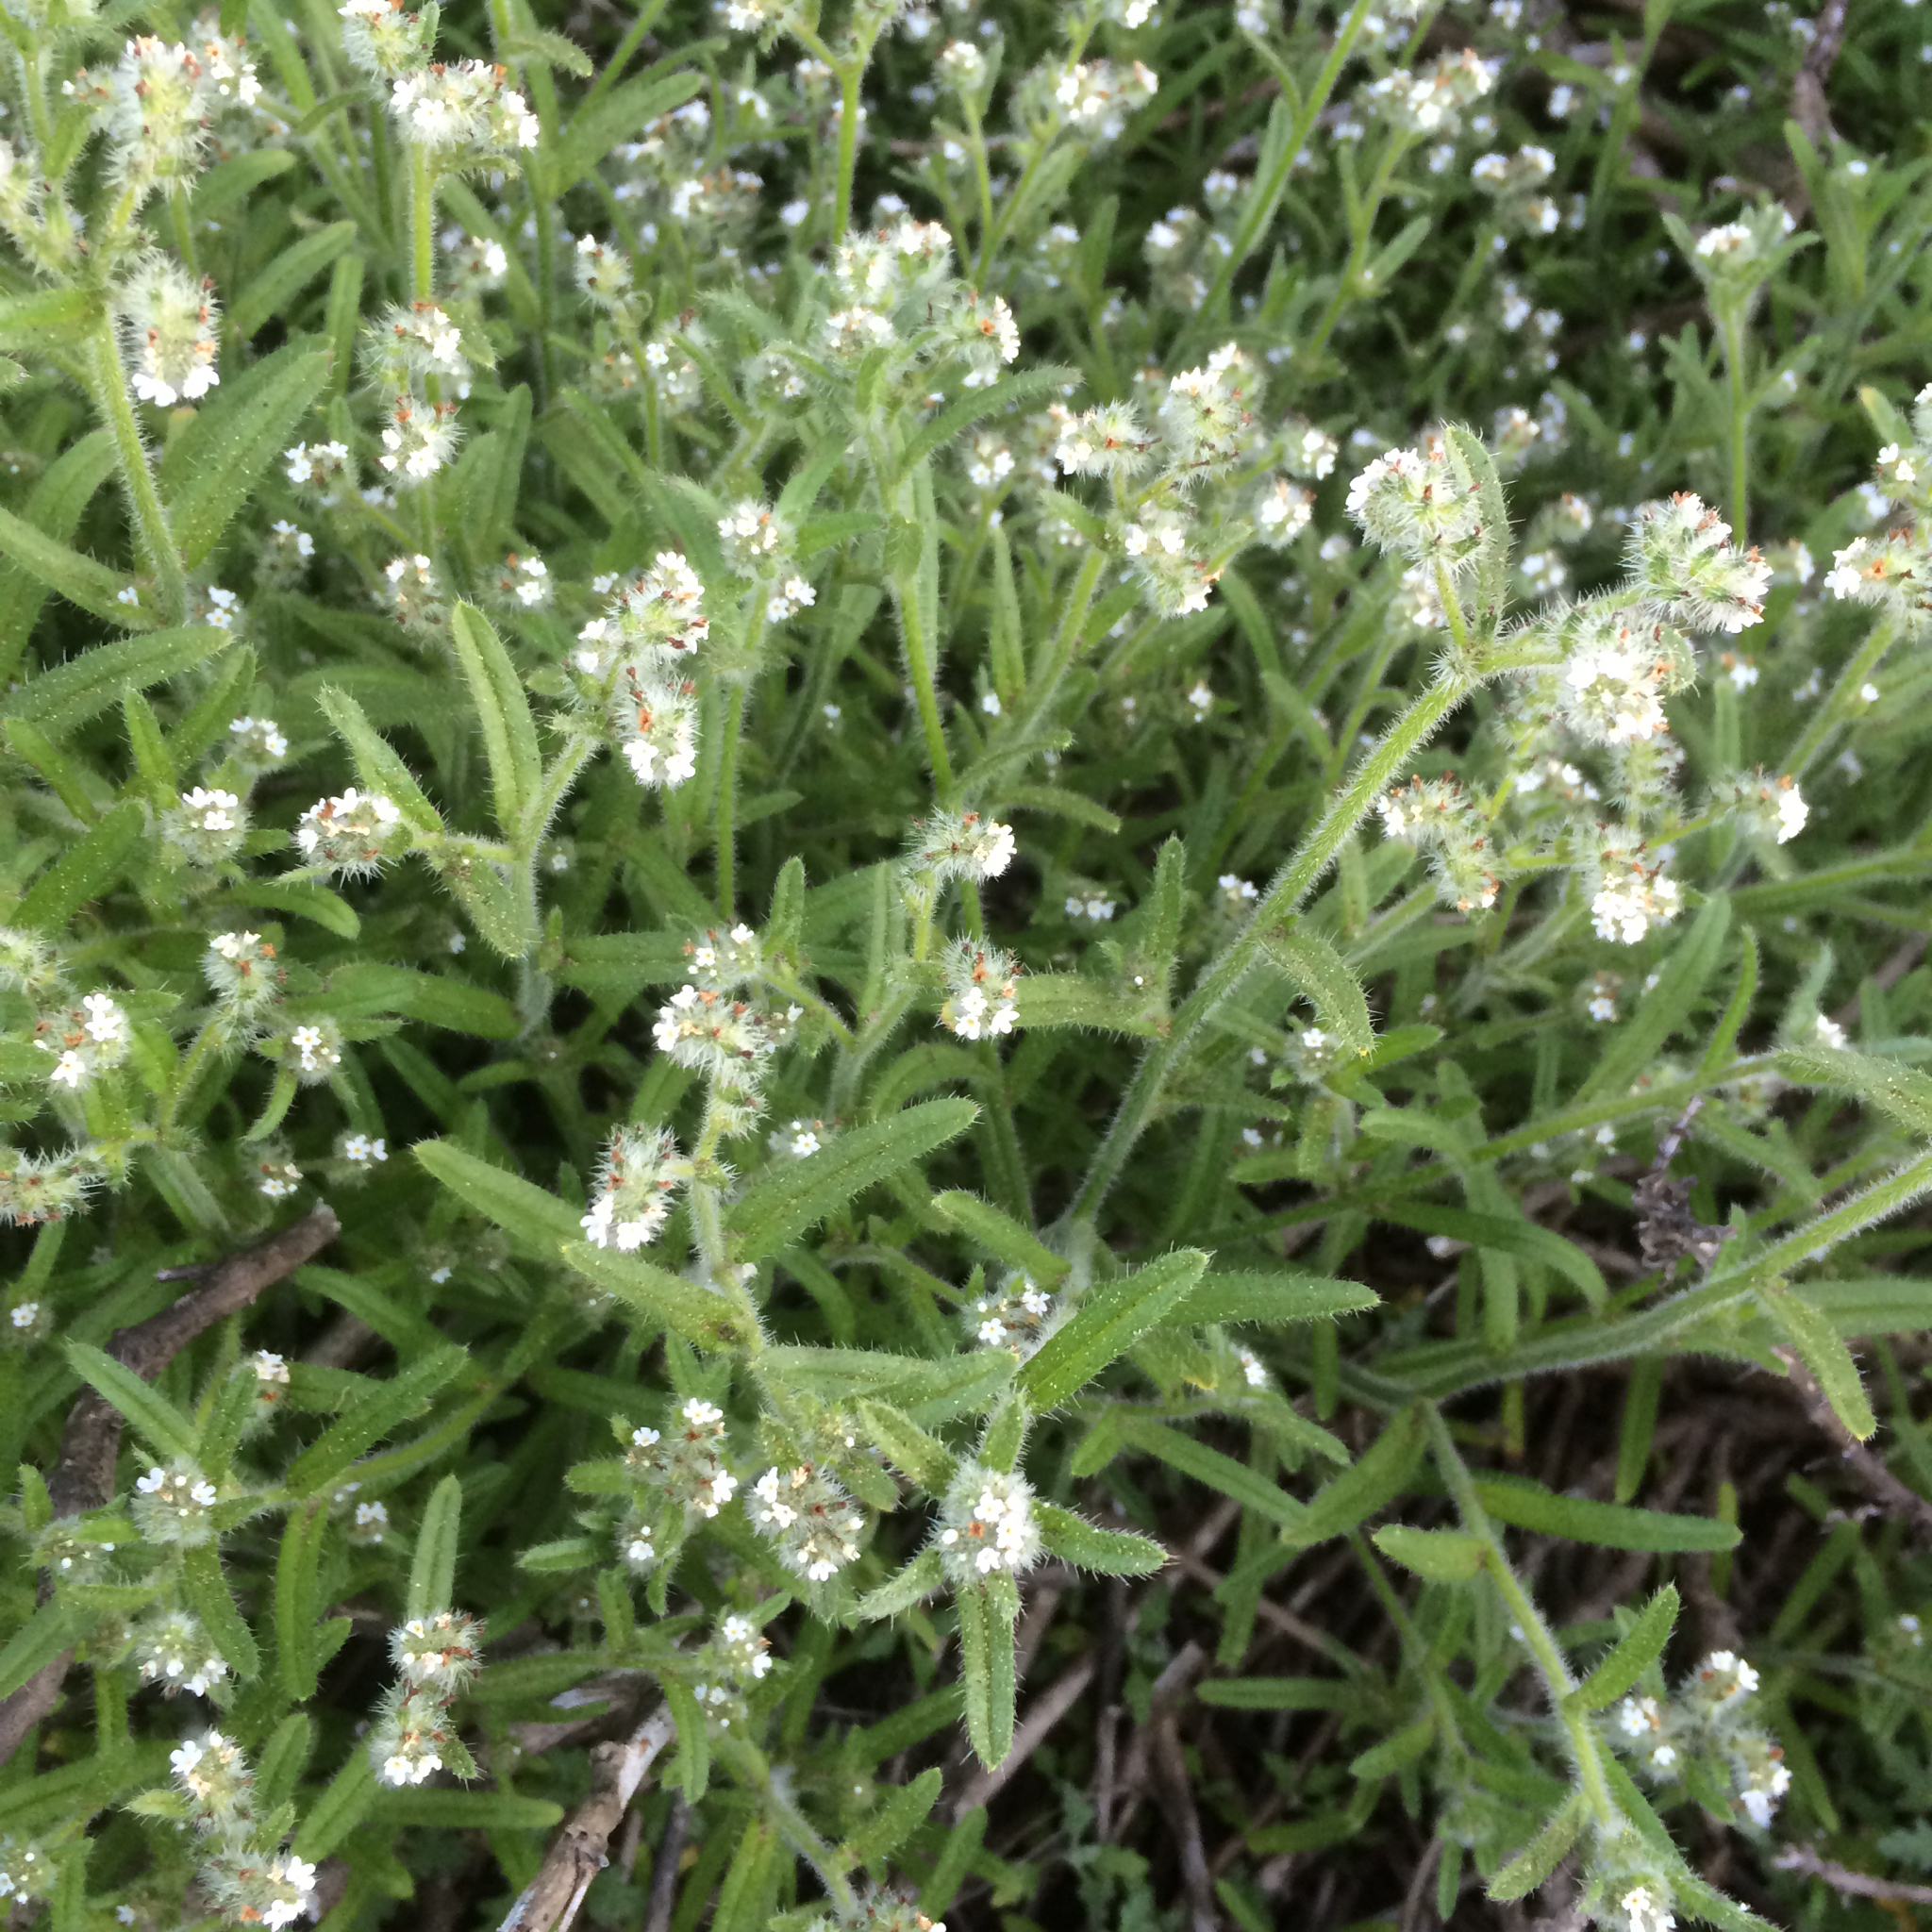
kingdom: Plantae
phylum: Tracheophyta
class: Magnoliopsida
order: Boraginales
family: Boraginaceae
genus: Cryptantha
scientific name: Cryptantha leiocarpa
